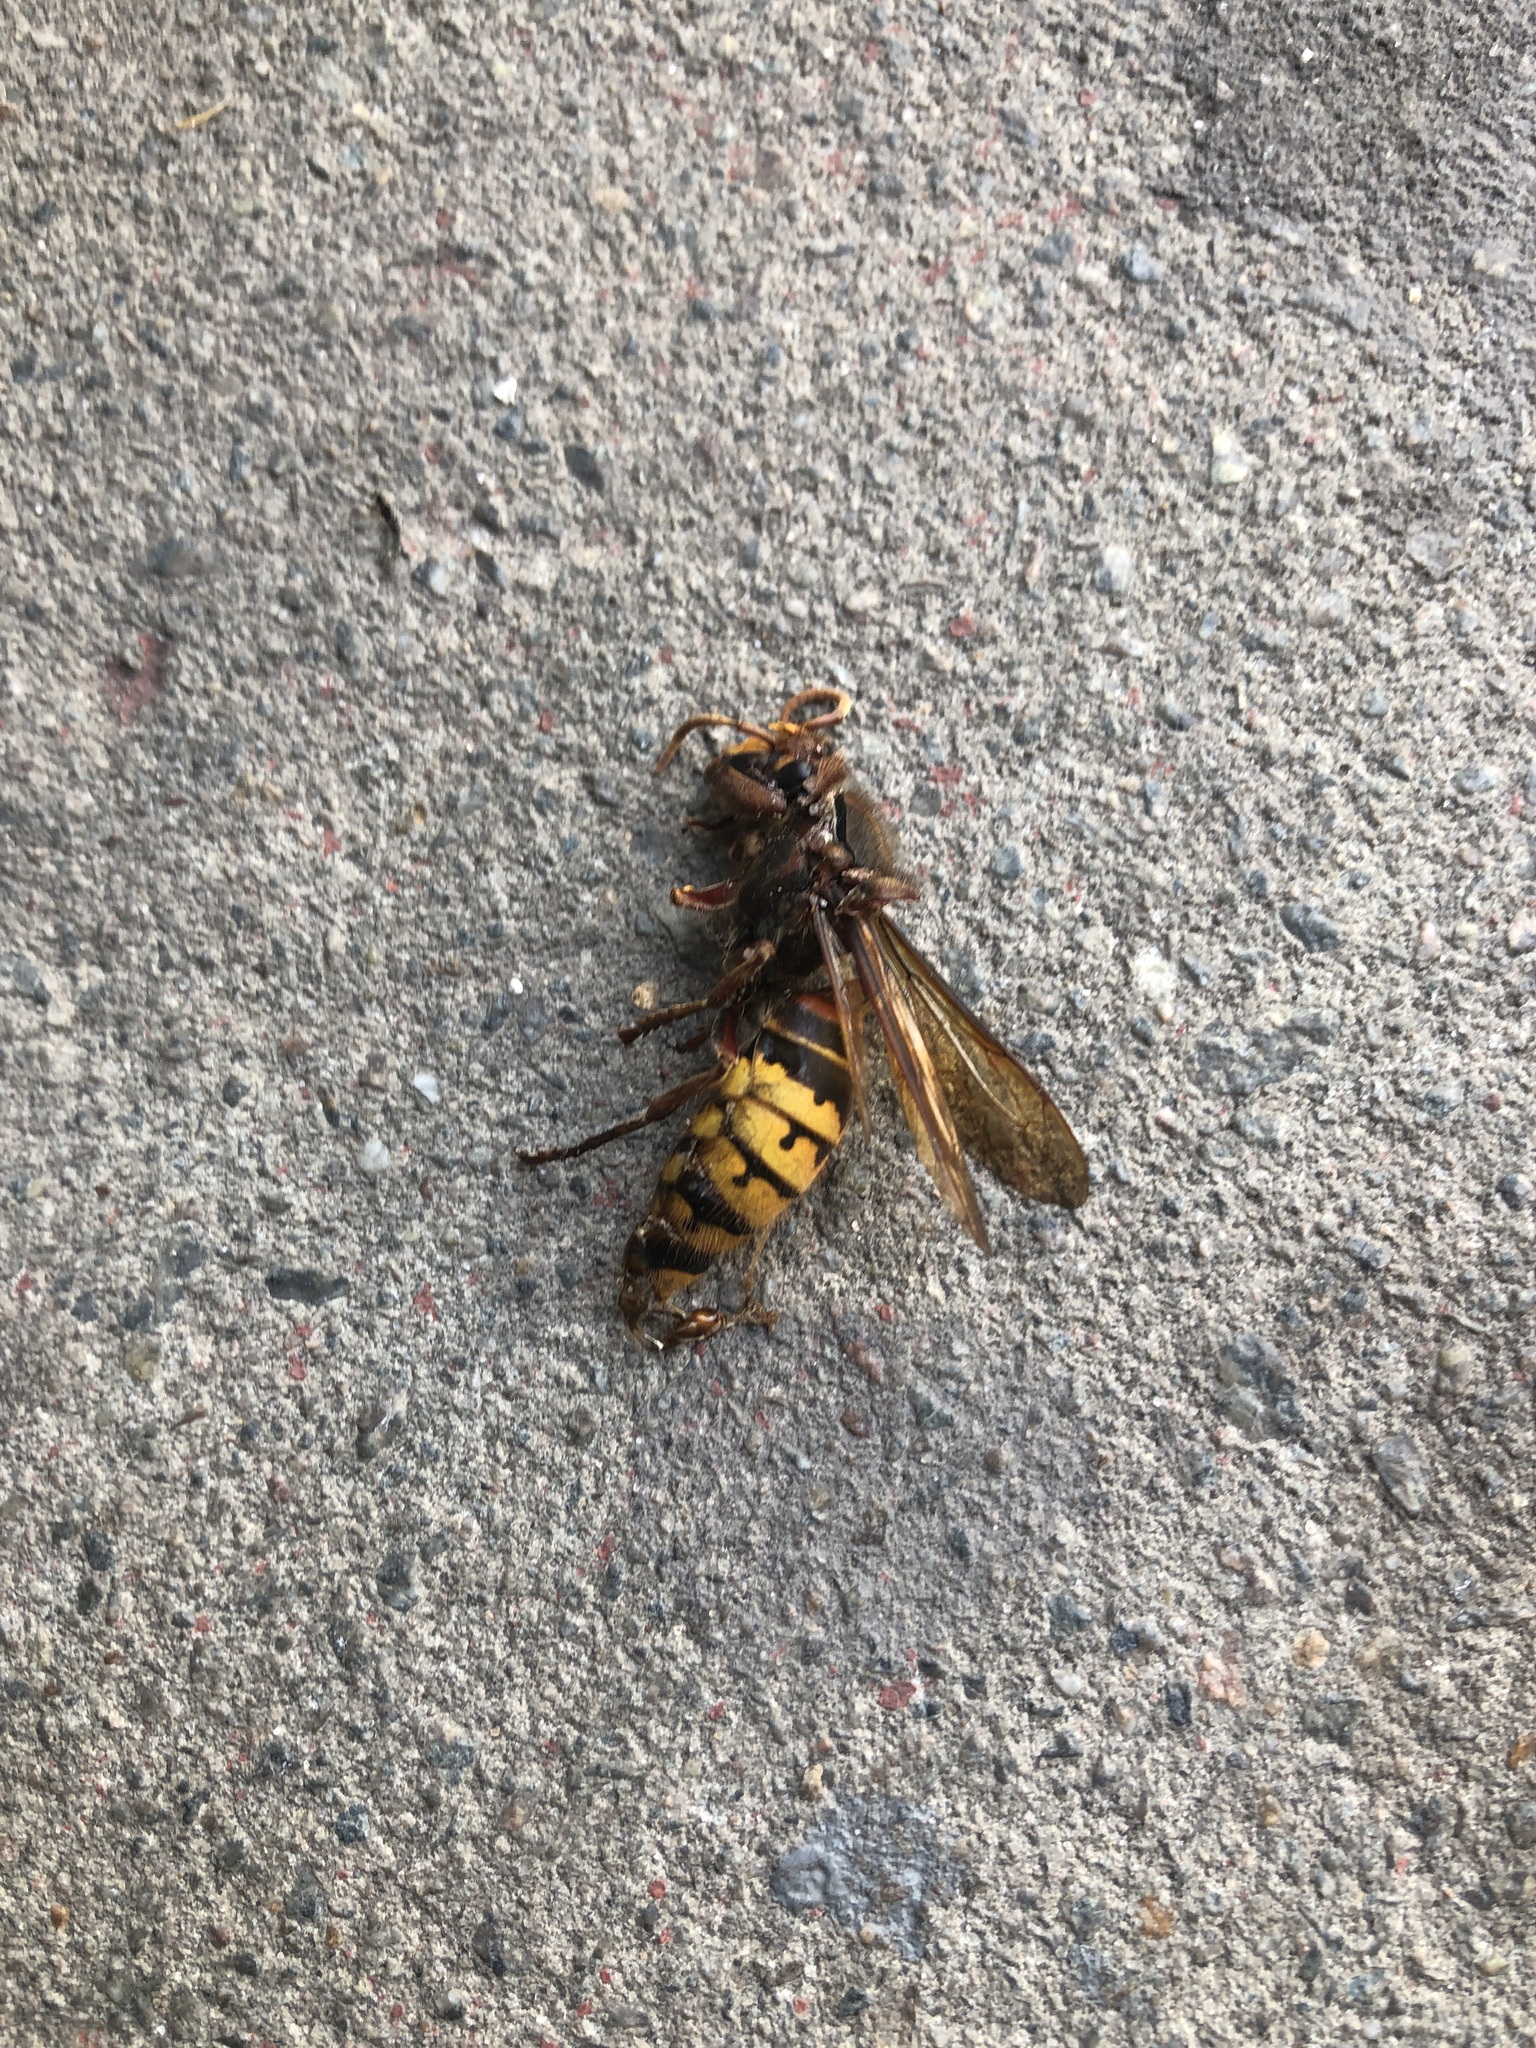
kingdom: Animalia
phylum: Arthropoda
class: Insecta
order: Hymenoptera
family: Vespidae
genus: Vespa
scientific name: Vespa crabro
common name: Hornet
